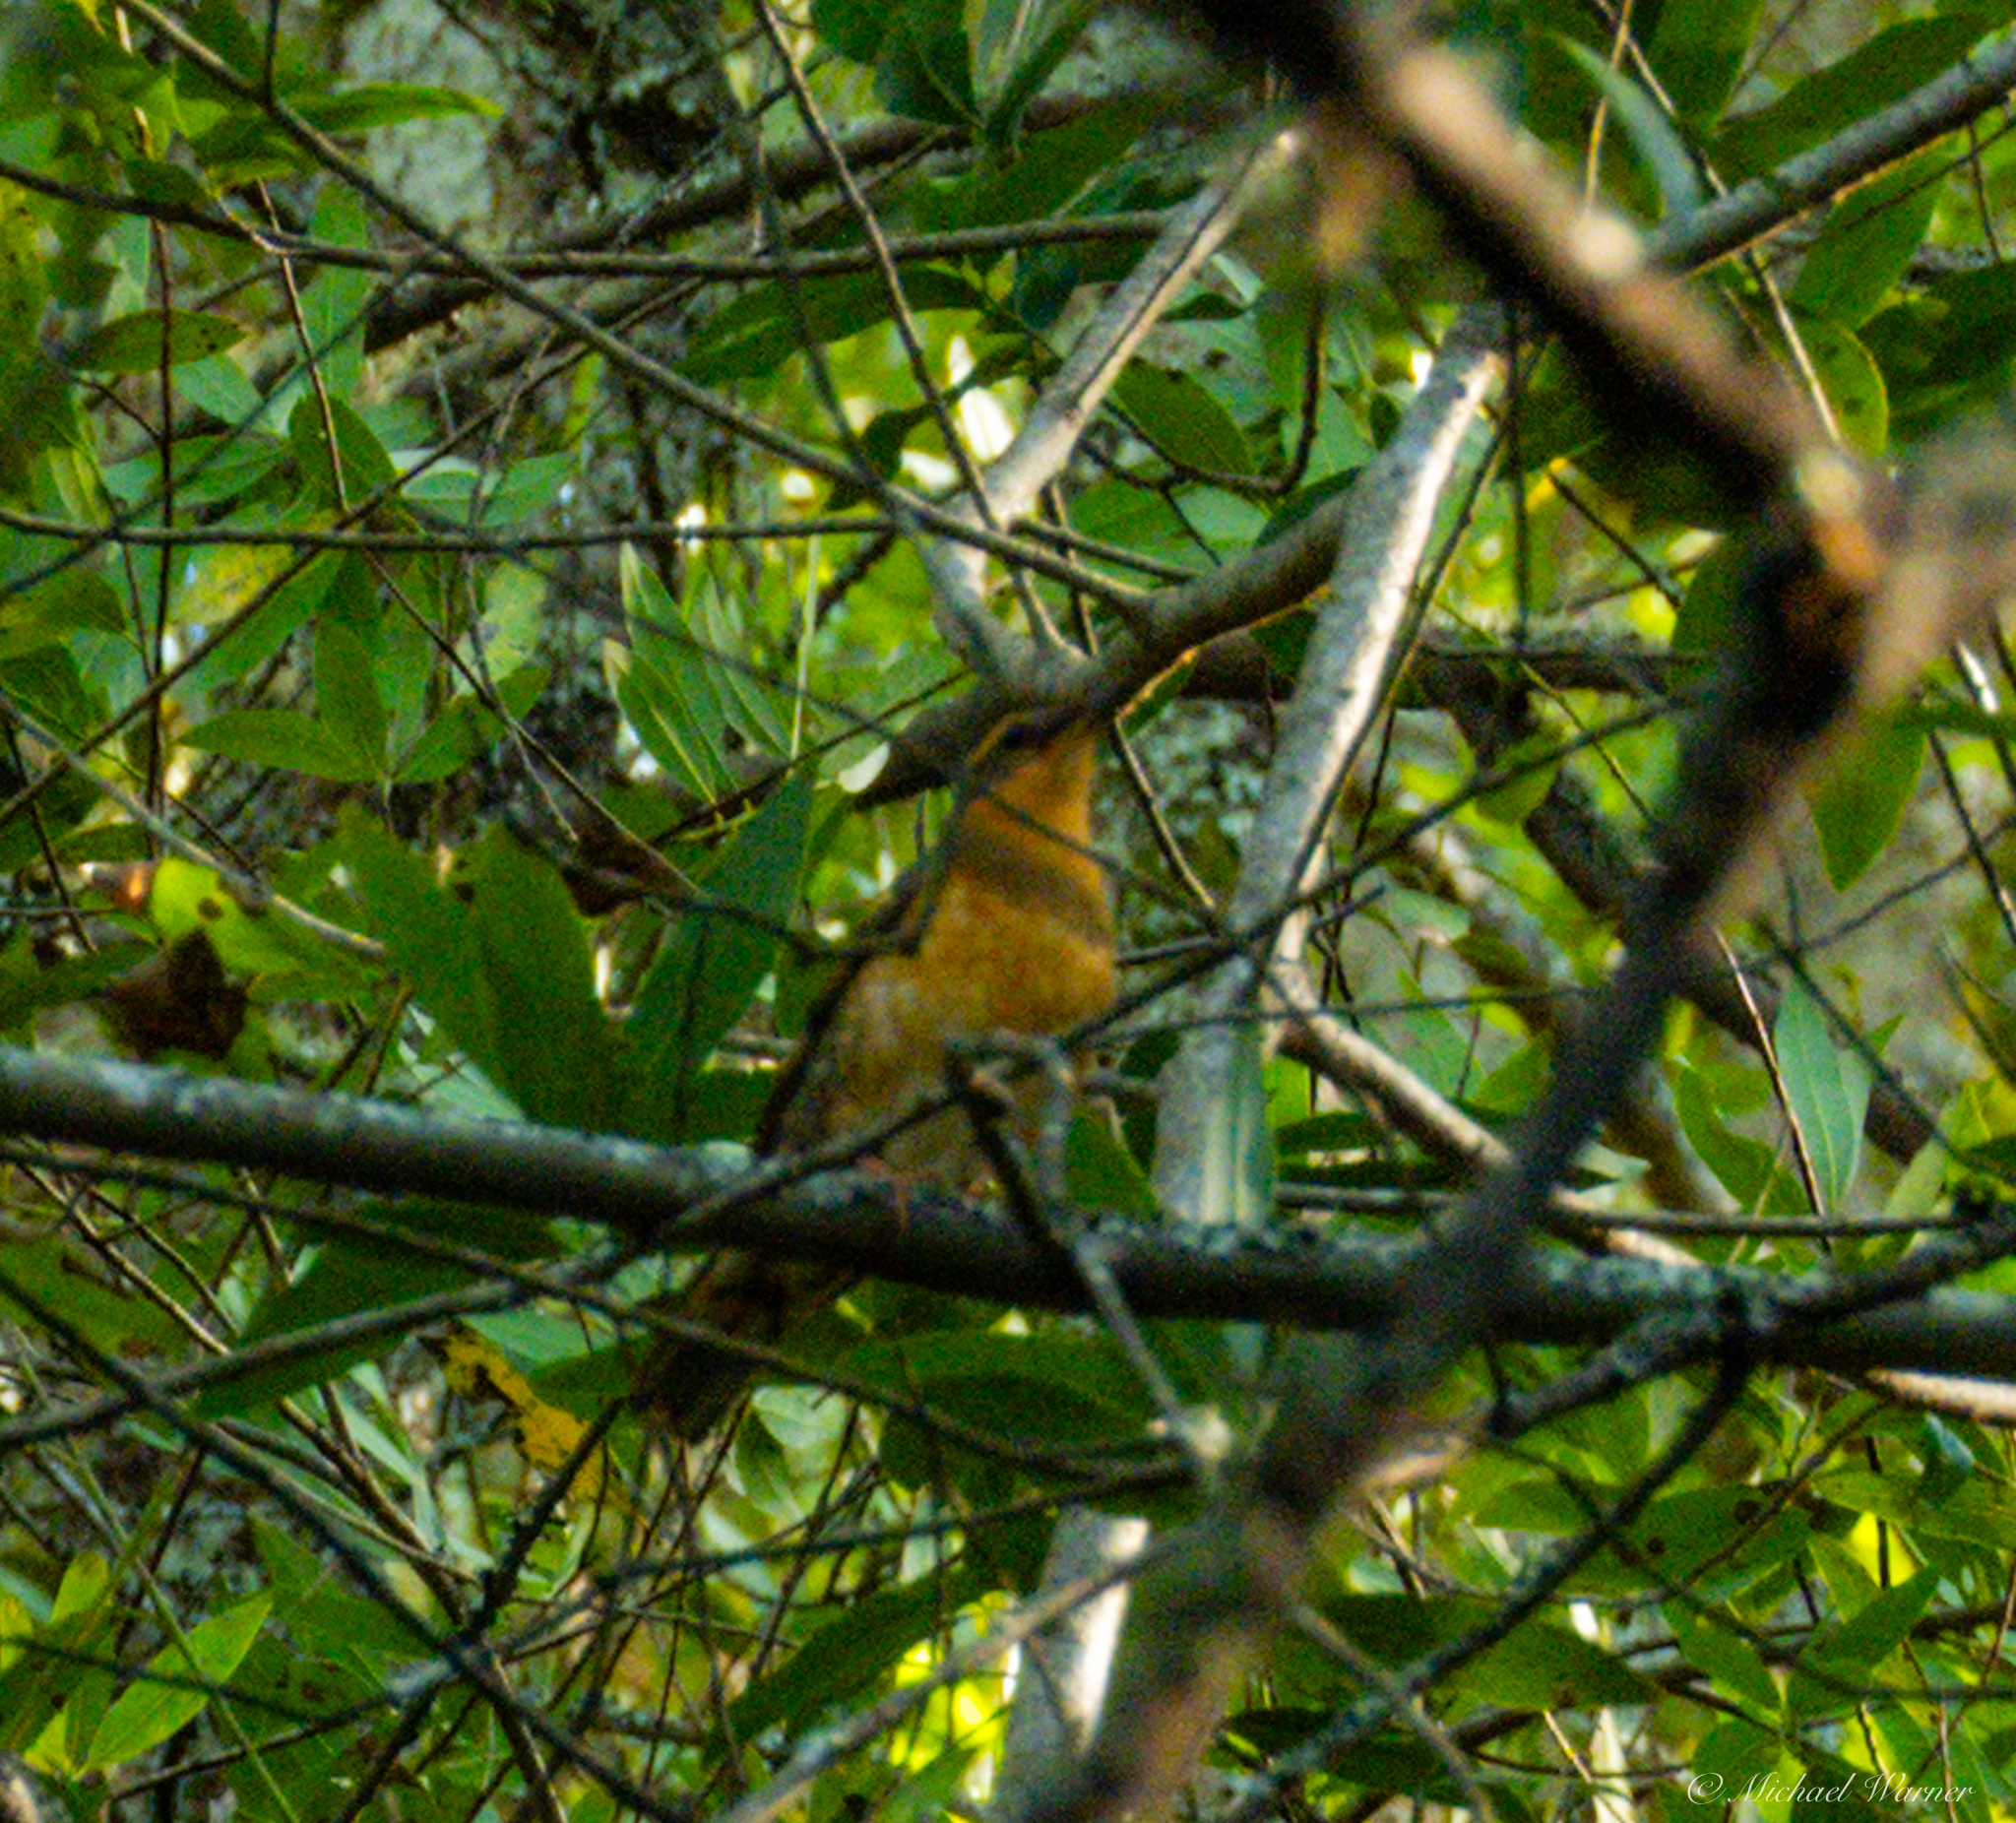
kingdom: Animalia
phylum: Chordata
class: Aves
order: Passeriformes
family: Turdidae
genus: Ixoreus
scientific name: Ixoreus naevius
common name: Varied thrush
